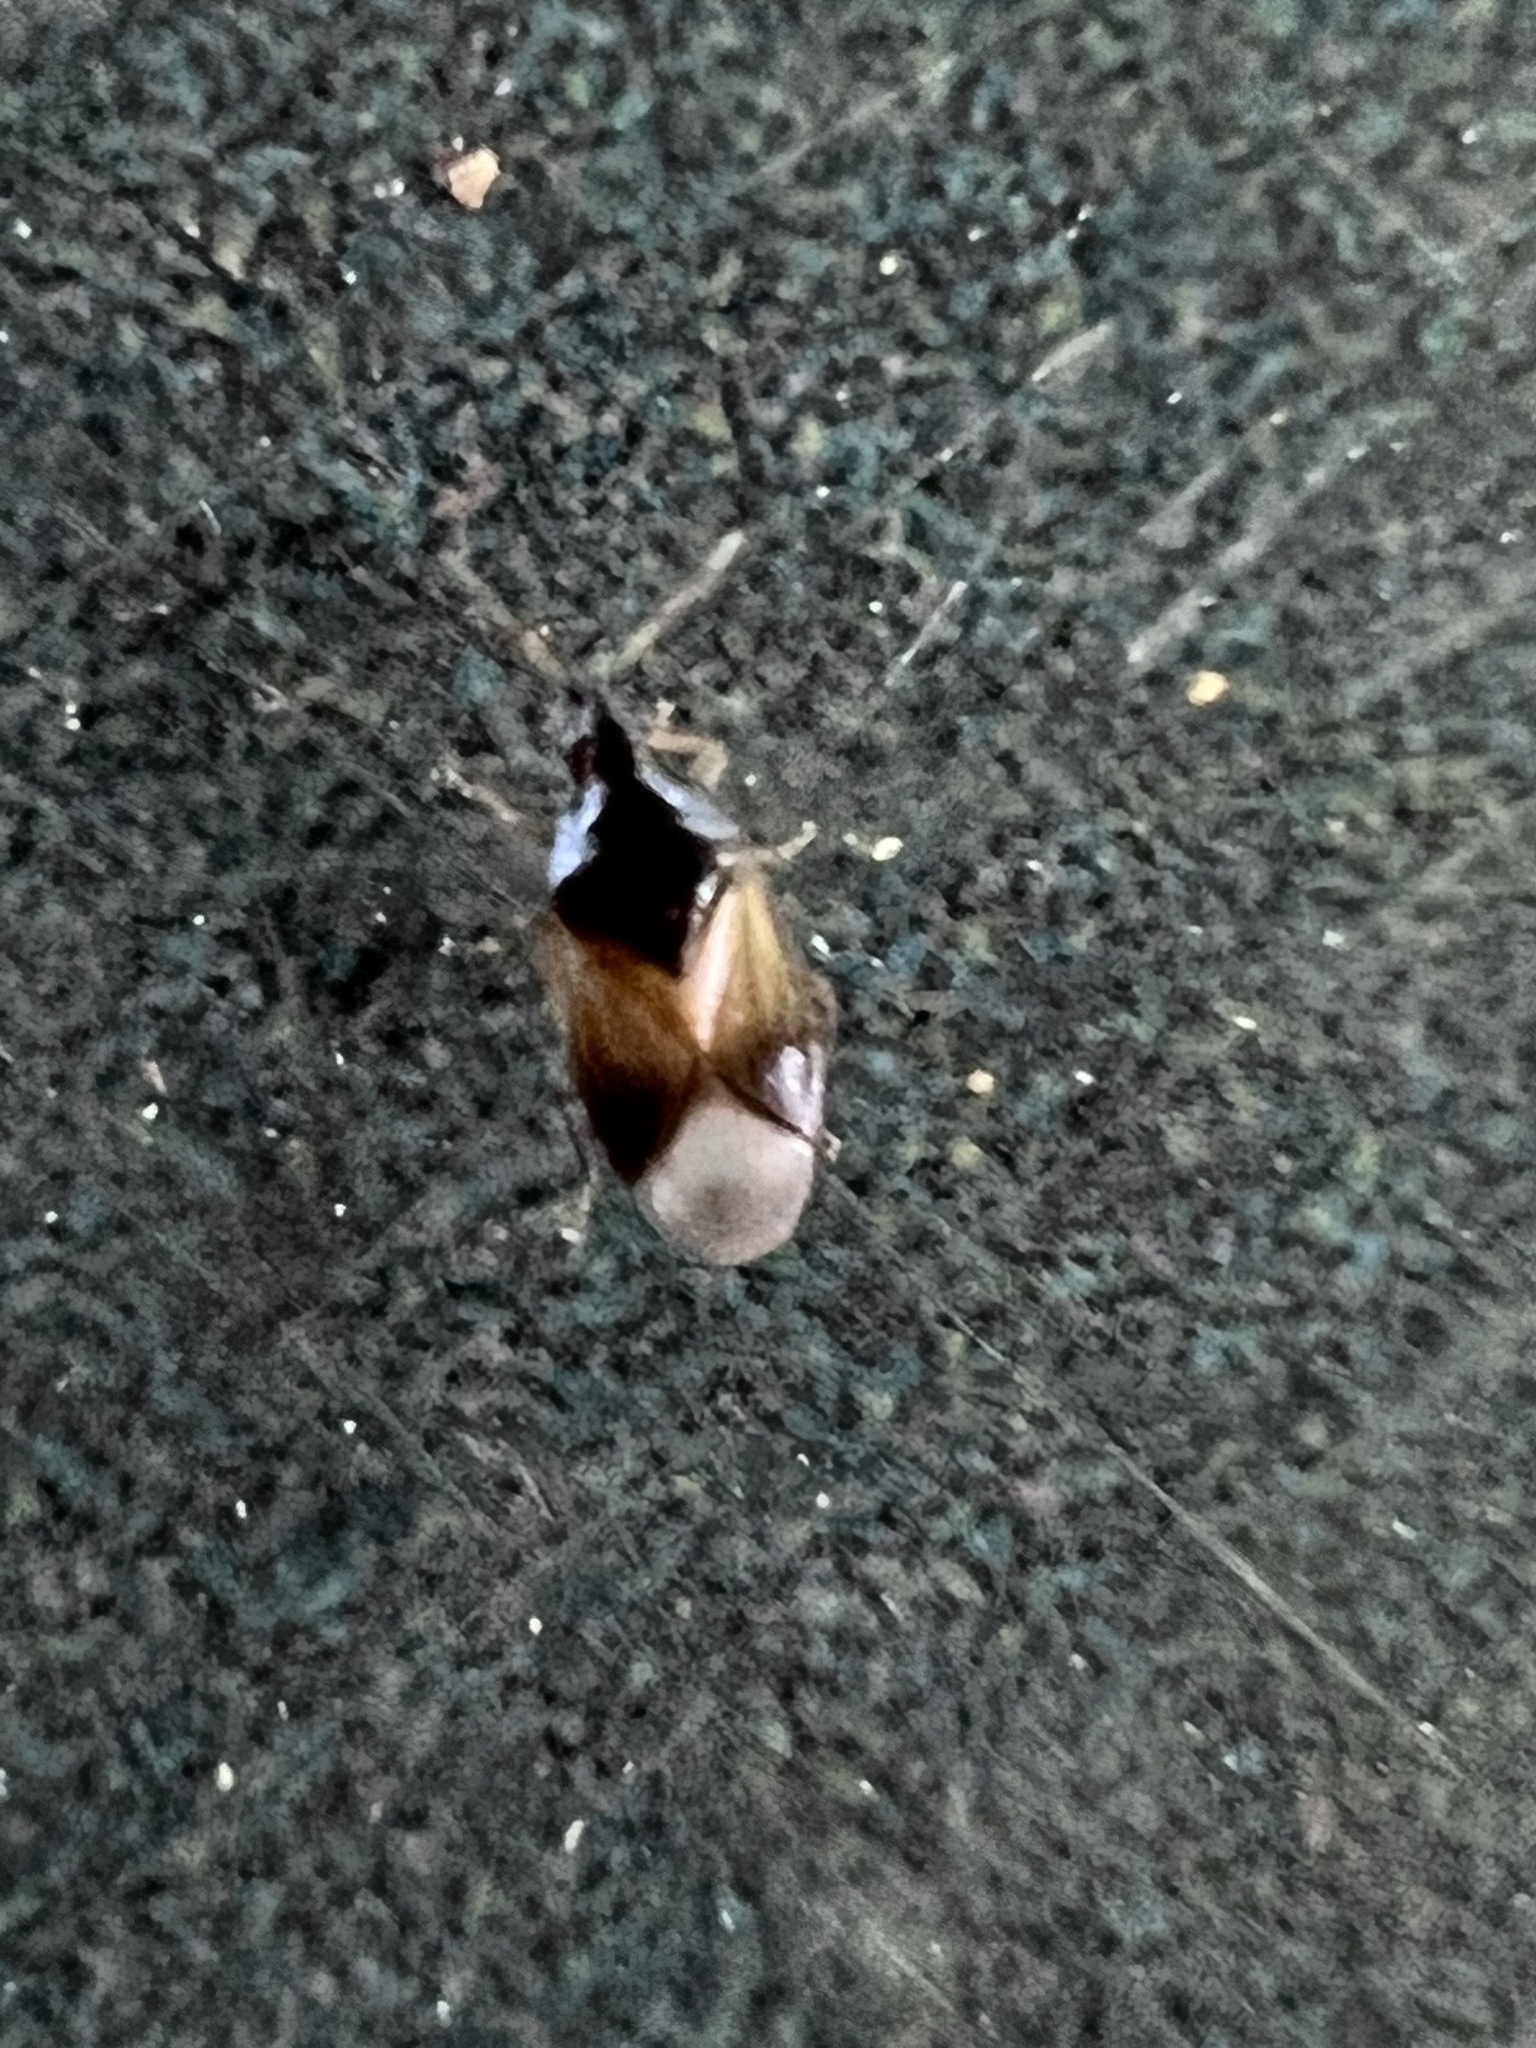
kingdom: Animalia
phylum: Arthropoda
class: Insecta
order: Hemiptera
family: Anthocoridae
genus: Orius
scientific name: Orius insidiosus
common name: Insidious flower bug
